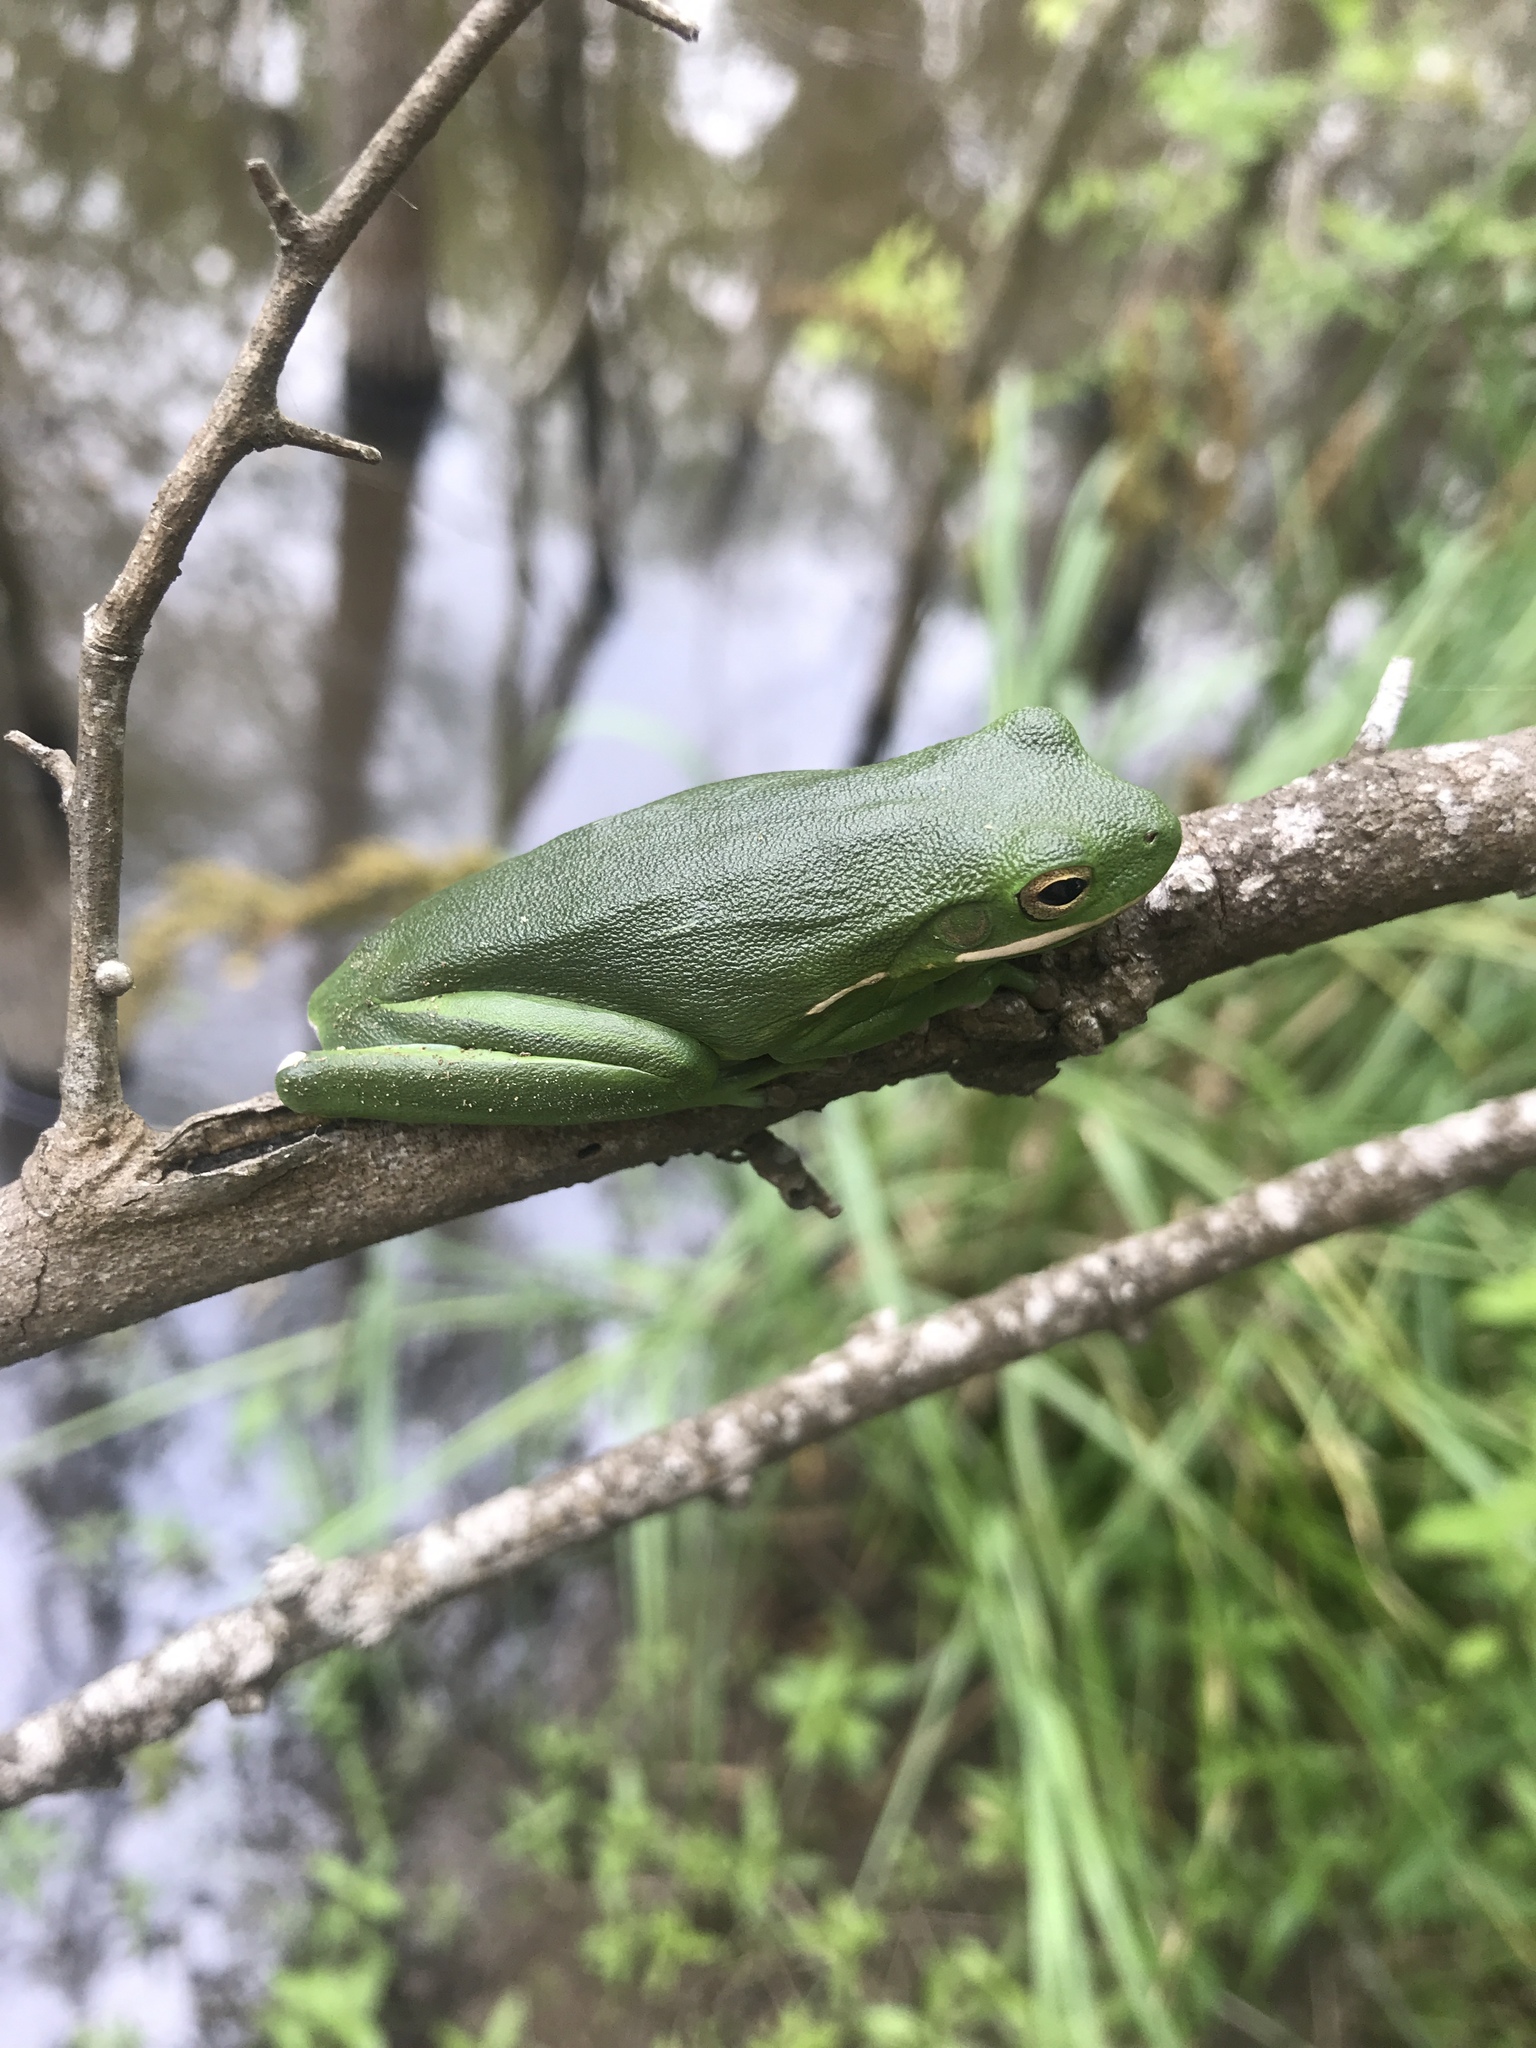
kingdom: Animalia
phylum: Chordata
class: Amphibia
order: Anura
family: Hylidae
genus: Dryophytes
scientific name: Dryophytes cinereus
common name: Green treefrog
